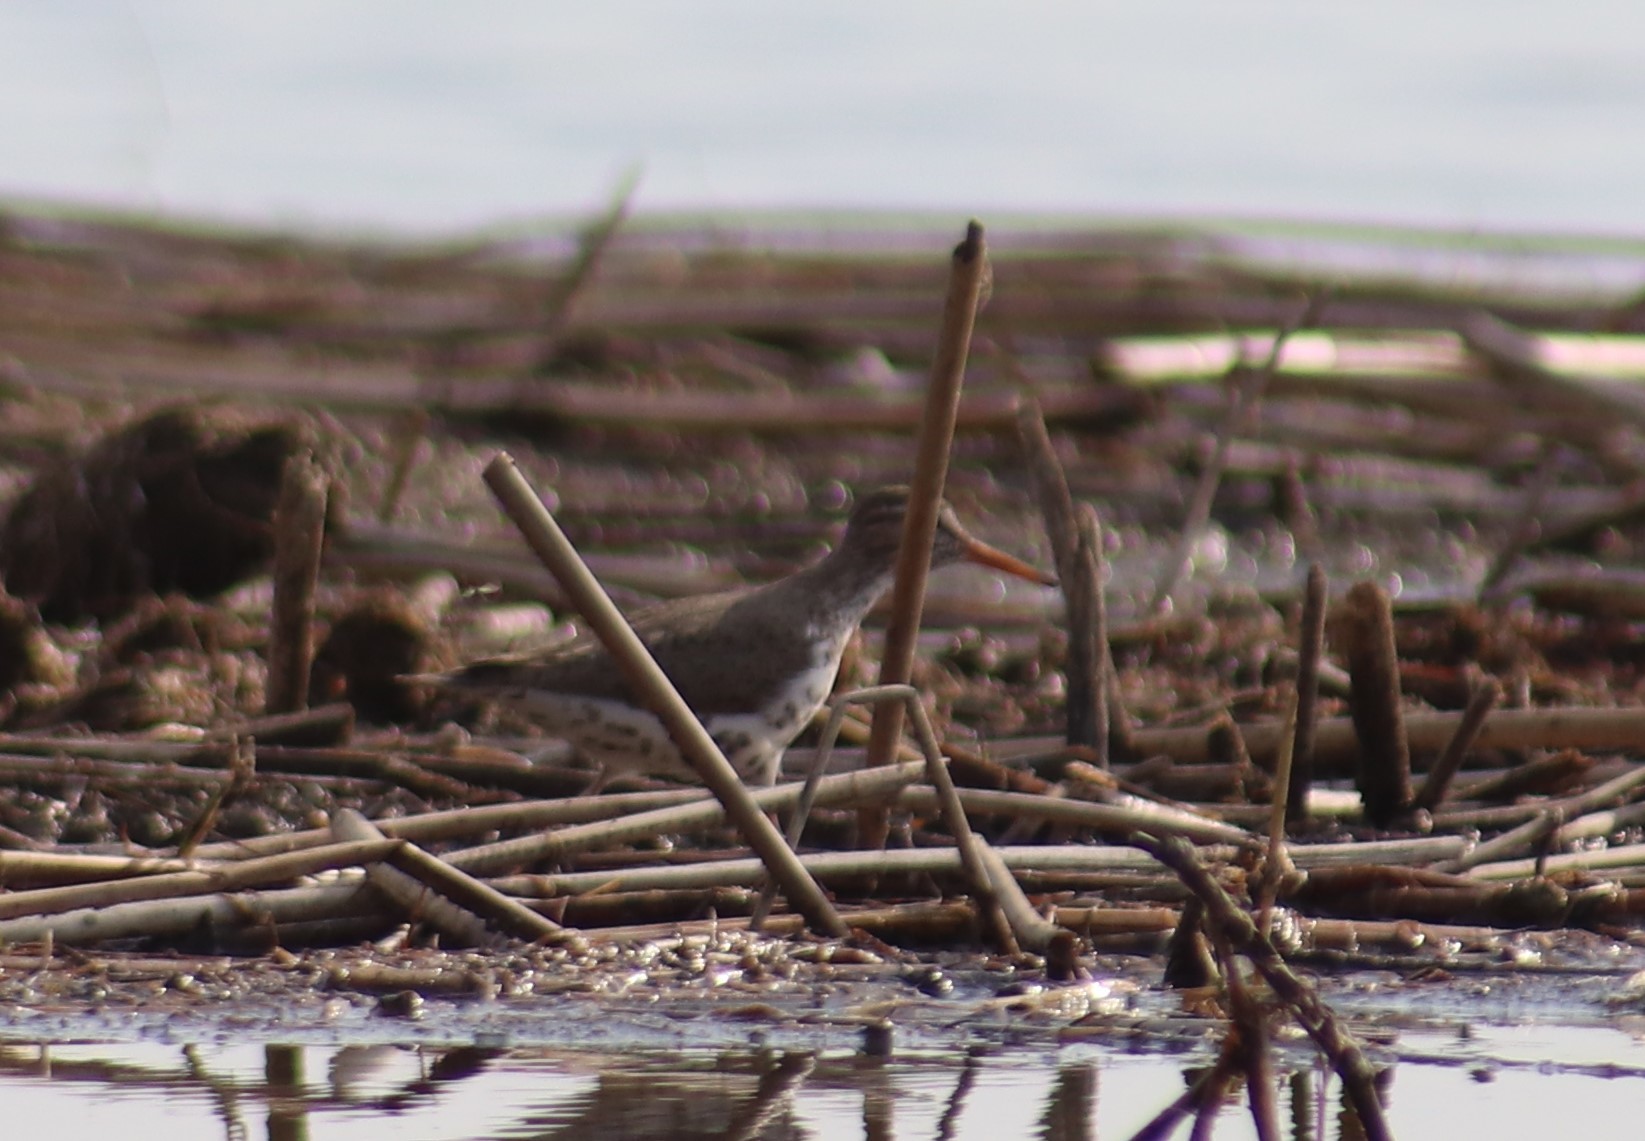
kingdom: Animalia
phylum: Chordata
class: Aves
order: Charadriiformes
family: Scolopacidae
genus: Actitis
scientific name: Actitis macularius
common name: Spotted sandpiper
